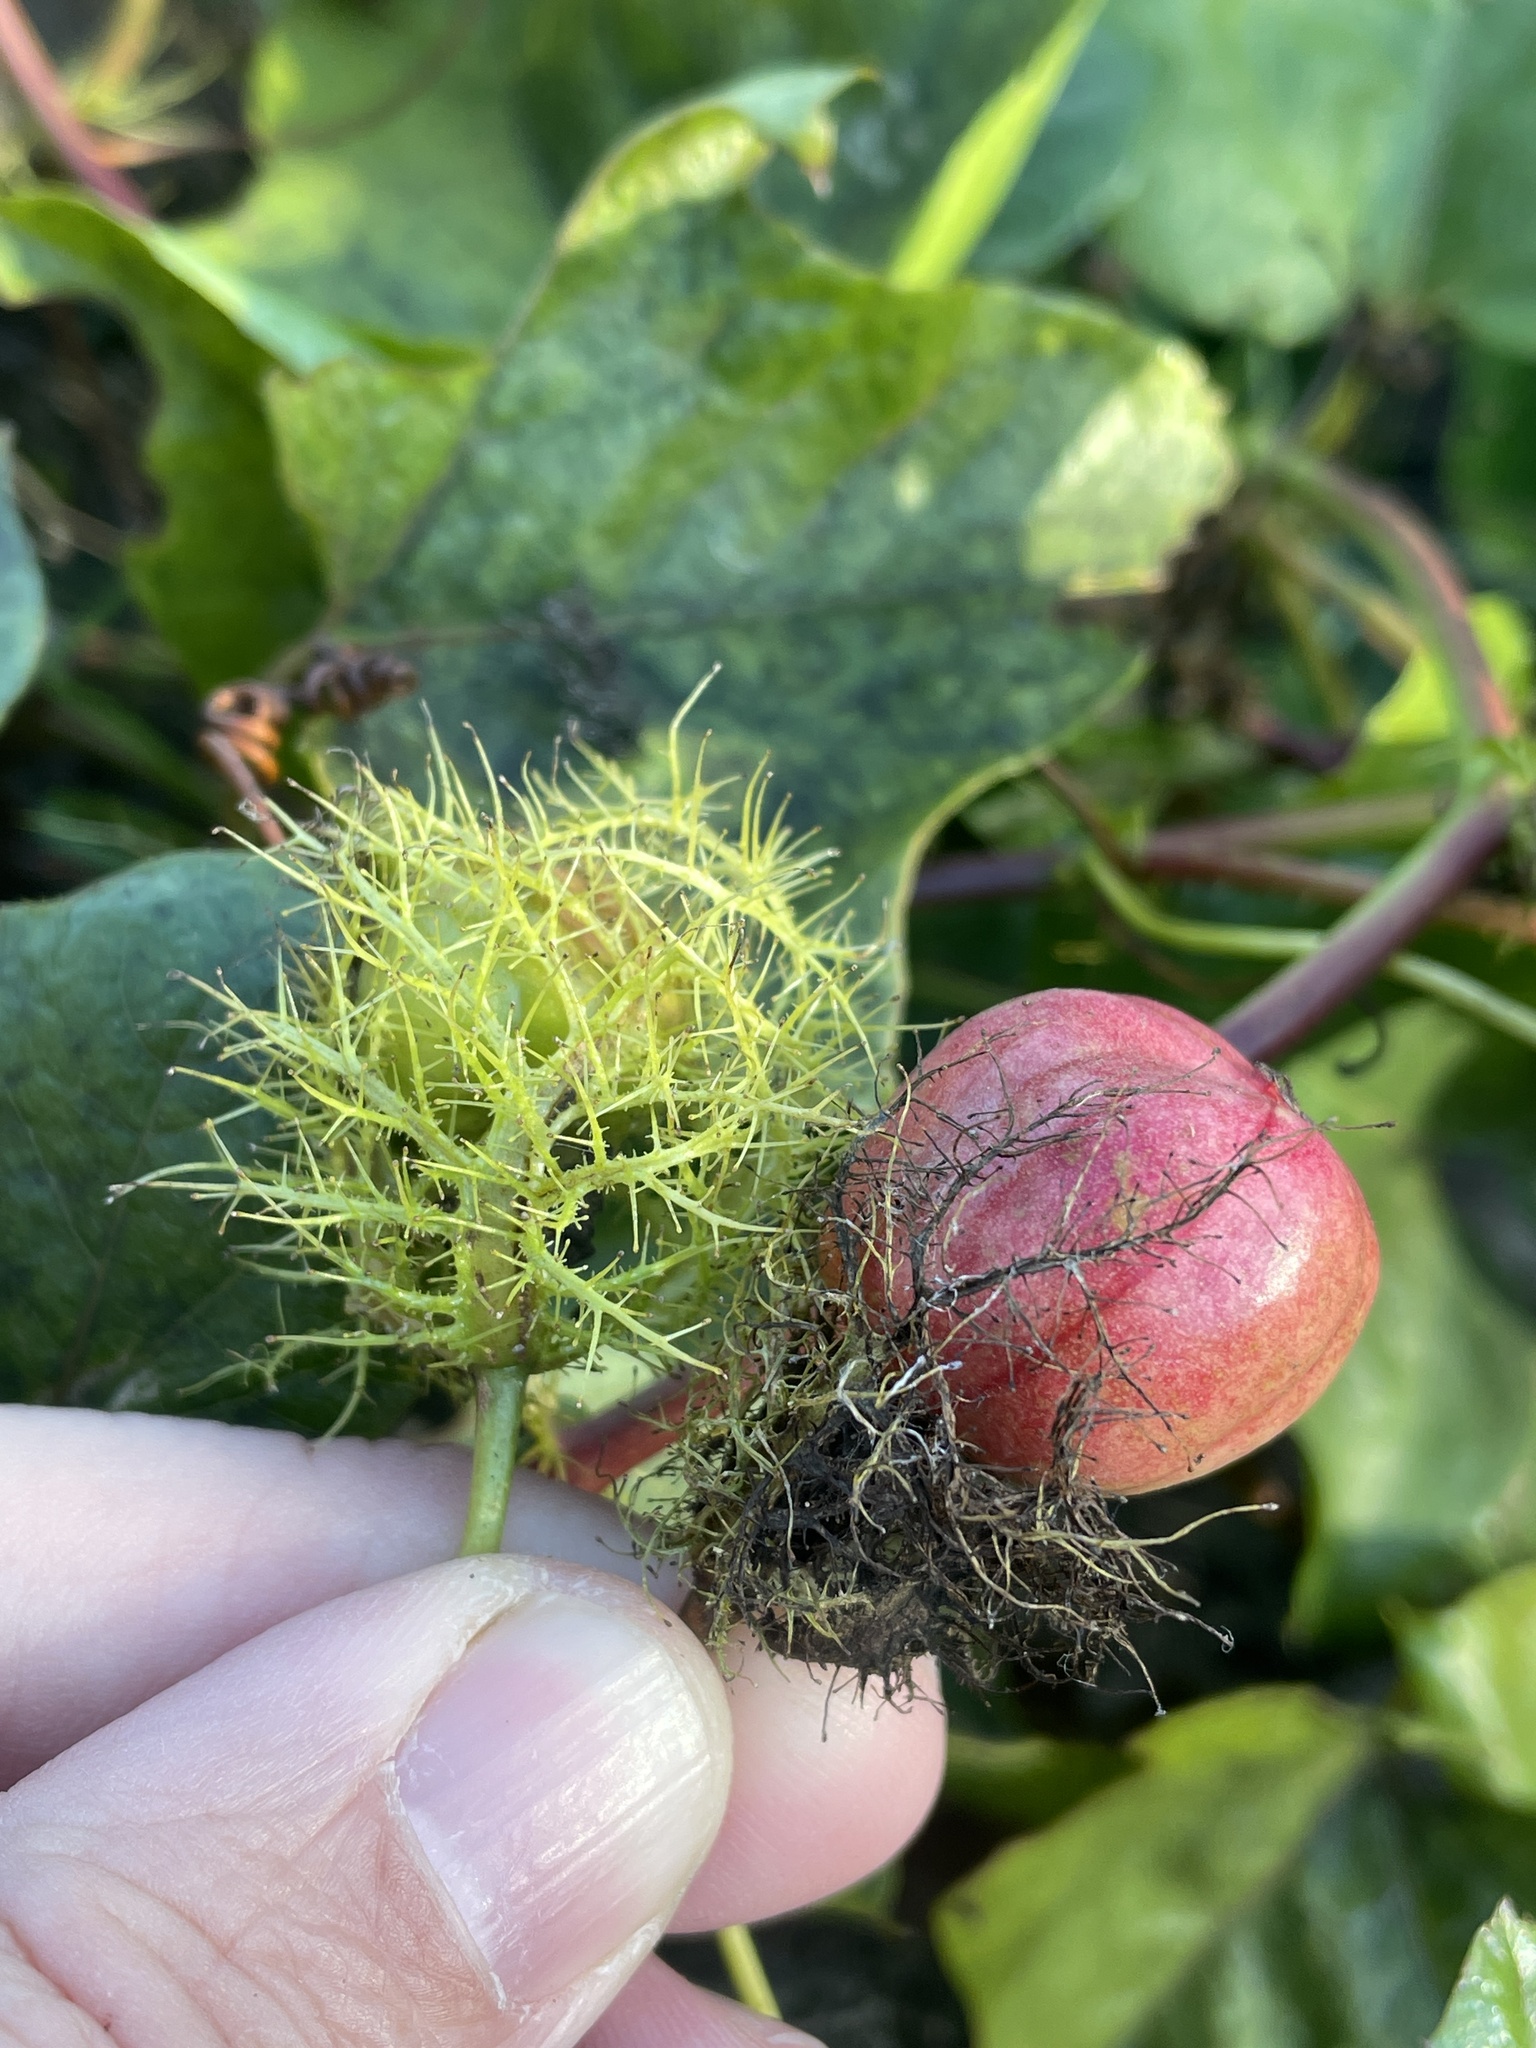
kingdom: Plantae
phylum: Tracheophyta
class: Magnoliopsida
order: Malpighiales
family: Passifloraceae
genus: Passiflora
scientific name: Passiflora
